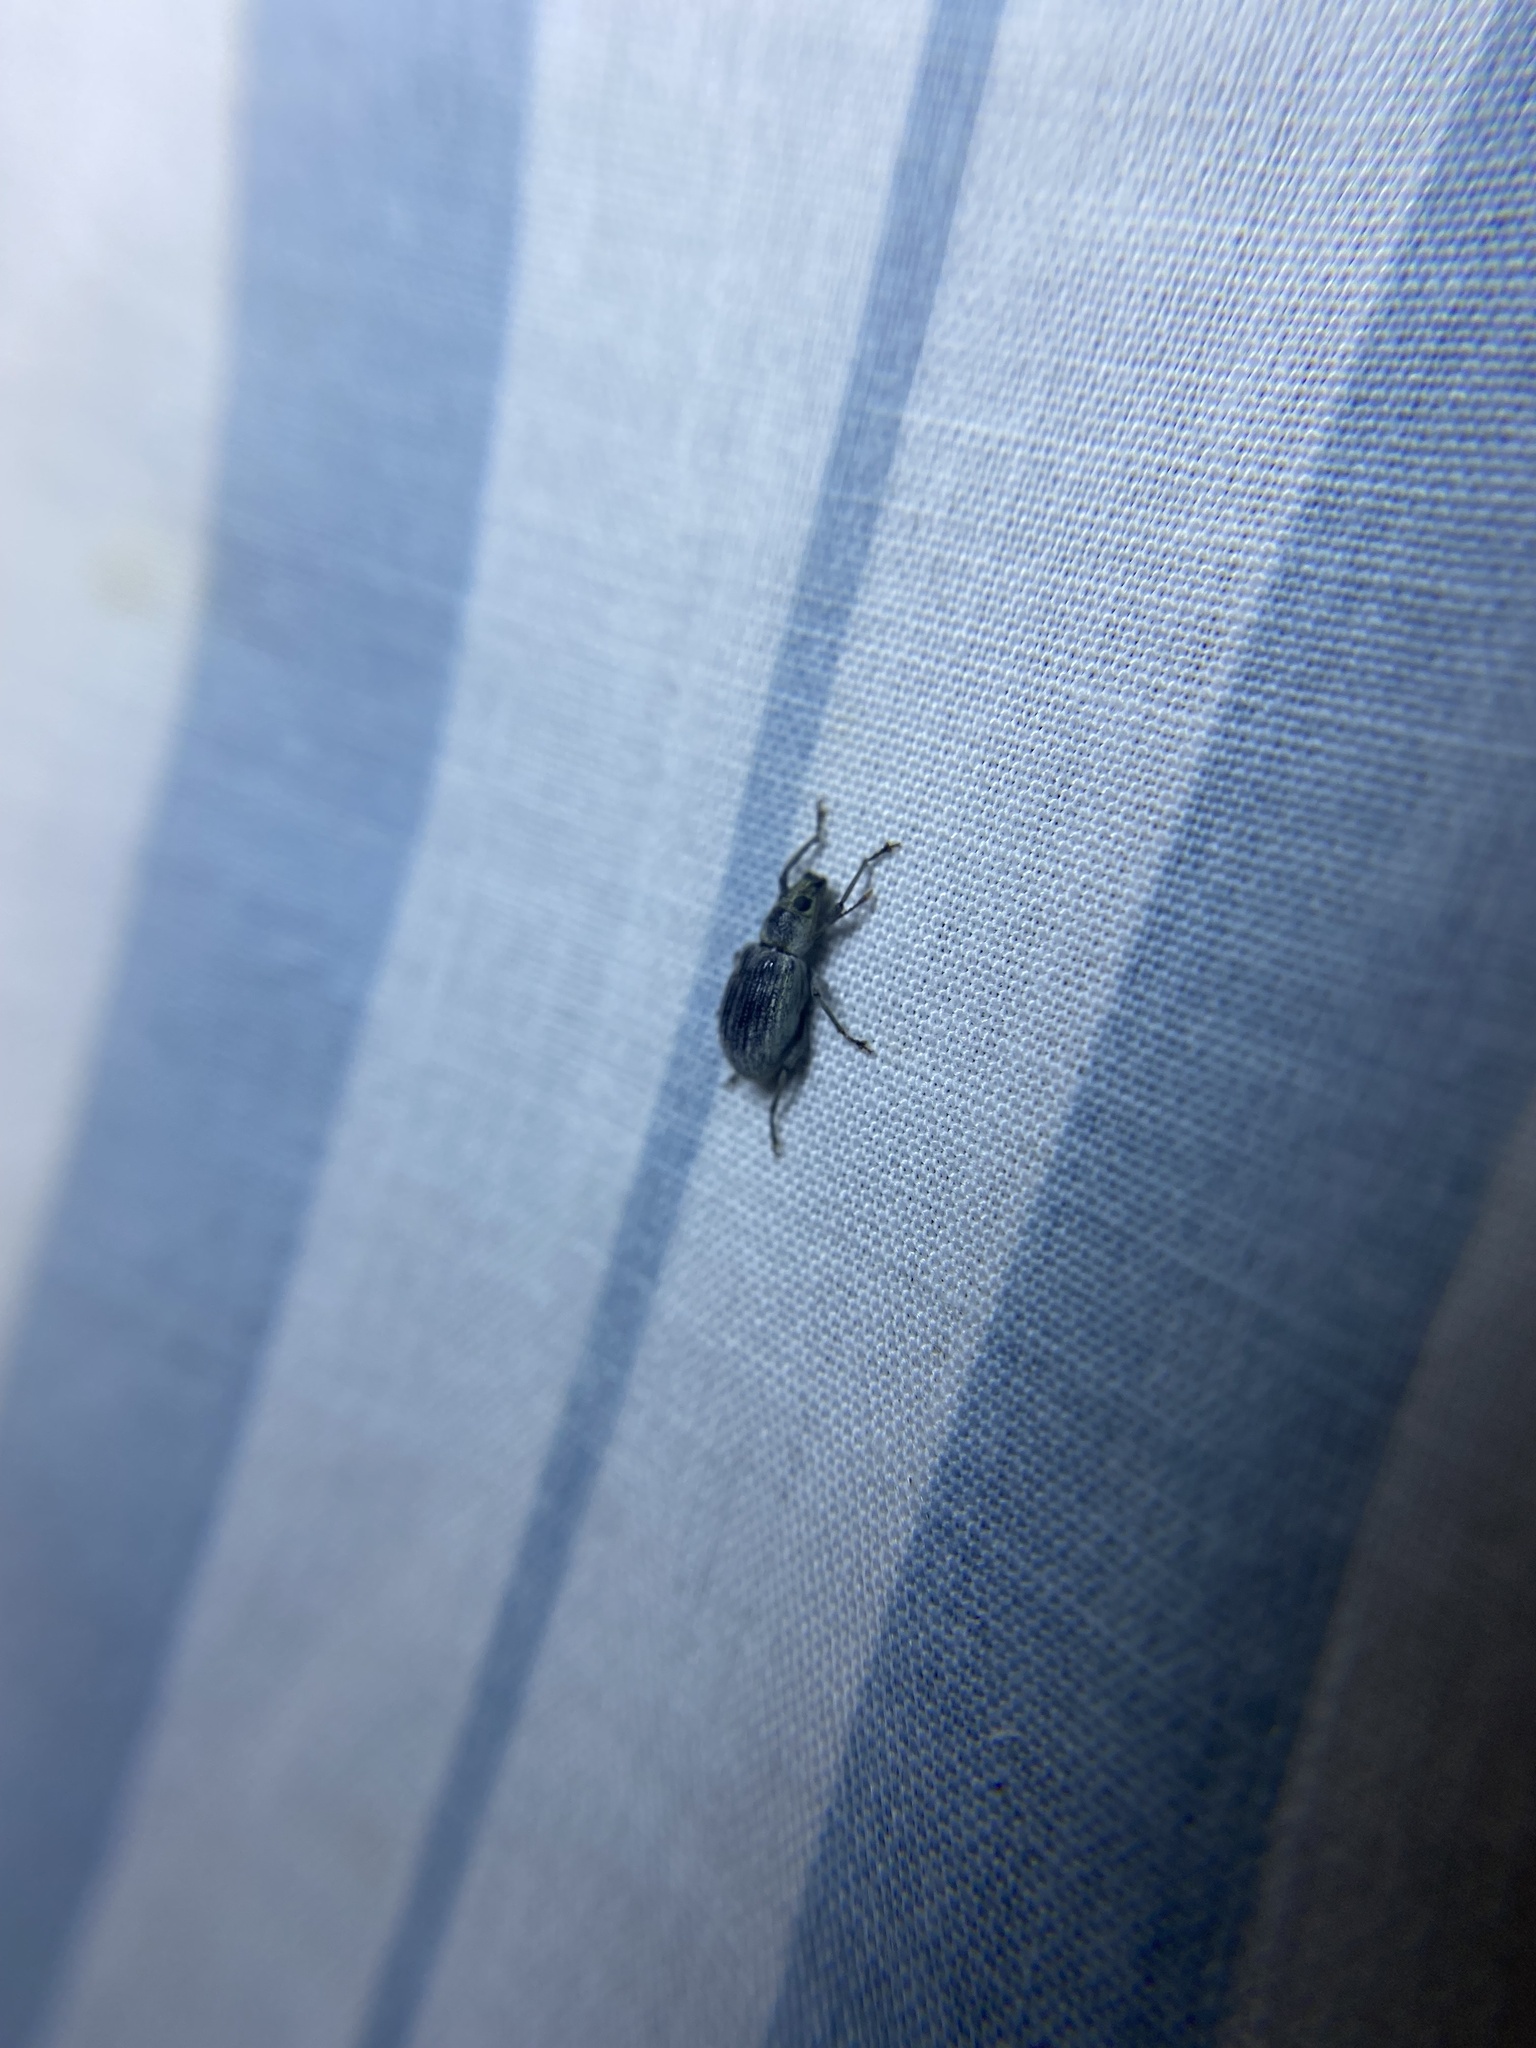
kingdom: Animalia
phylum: Arthropoda
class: Insecta
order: Coleoptera
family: Curculionidae
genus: Cyrtepistomus
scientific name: Cyrtepistomus castaneus
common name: Weevil
